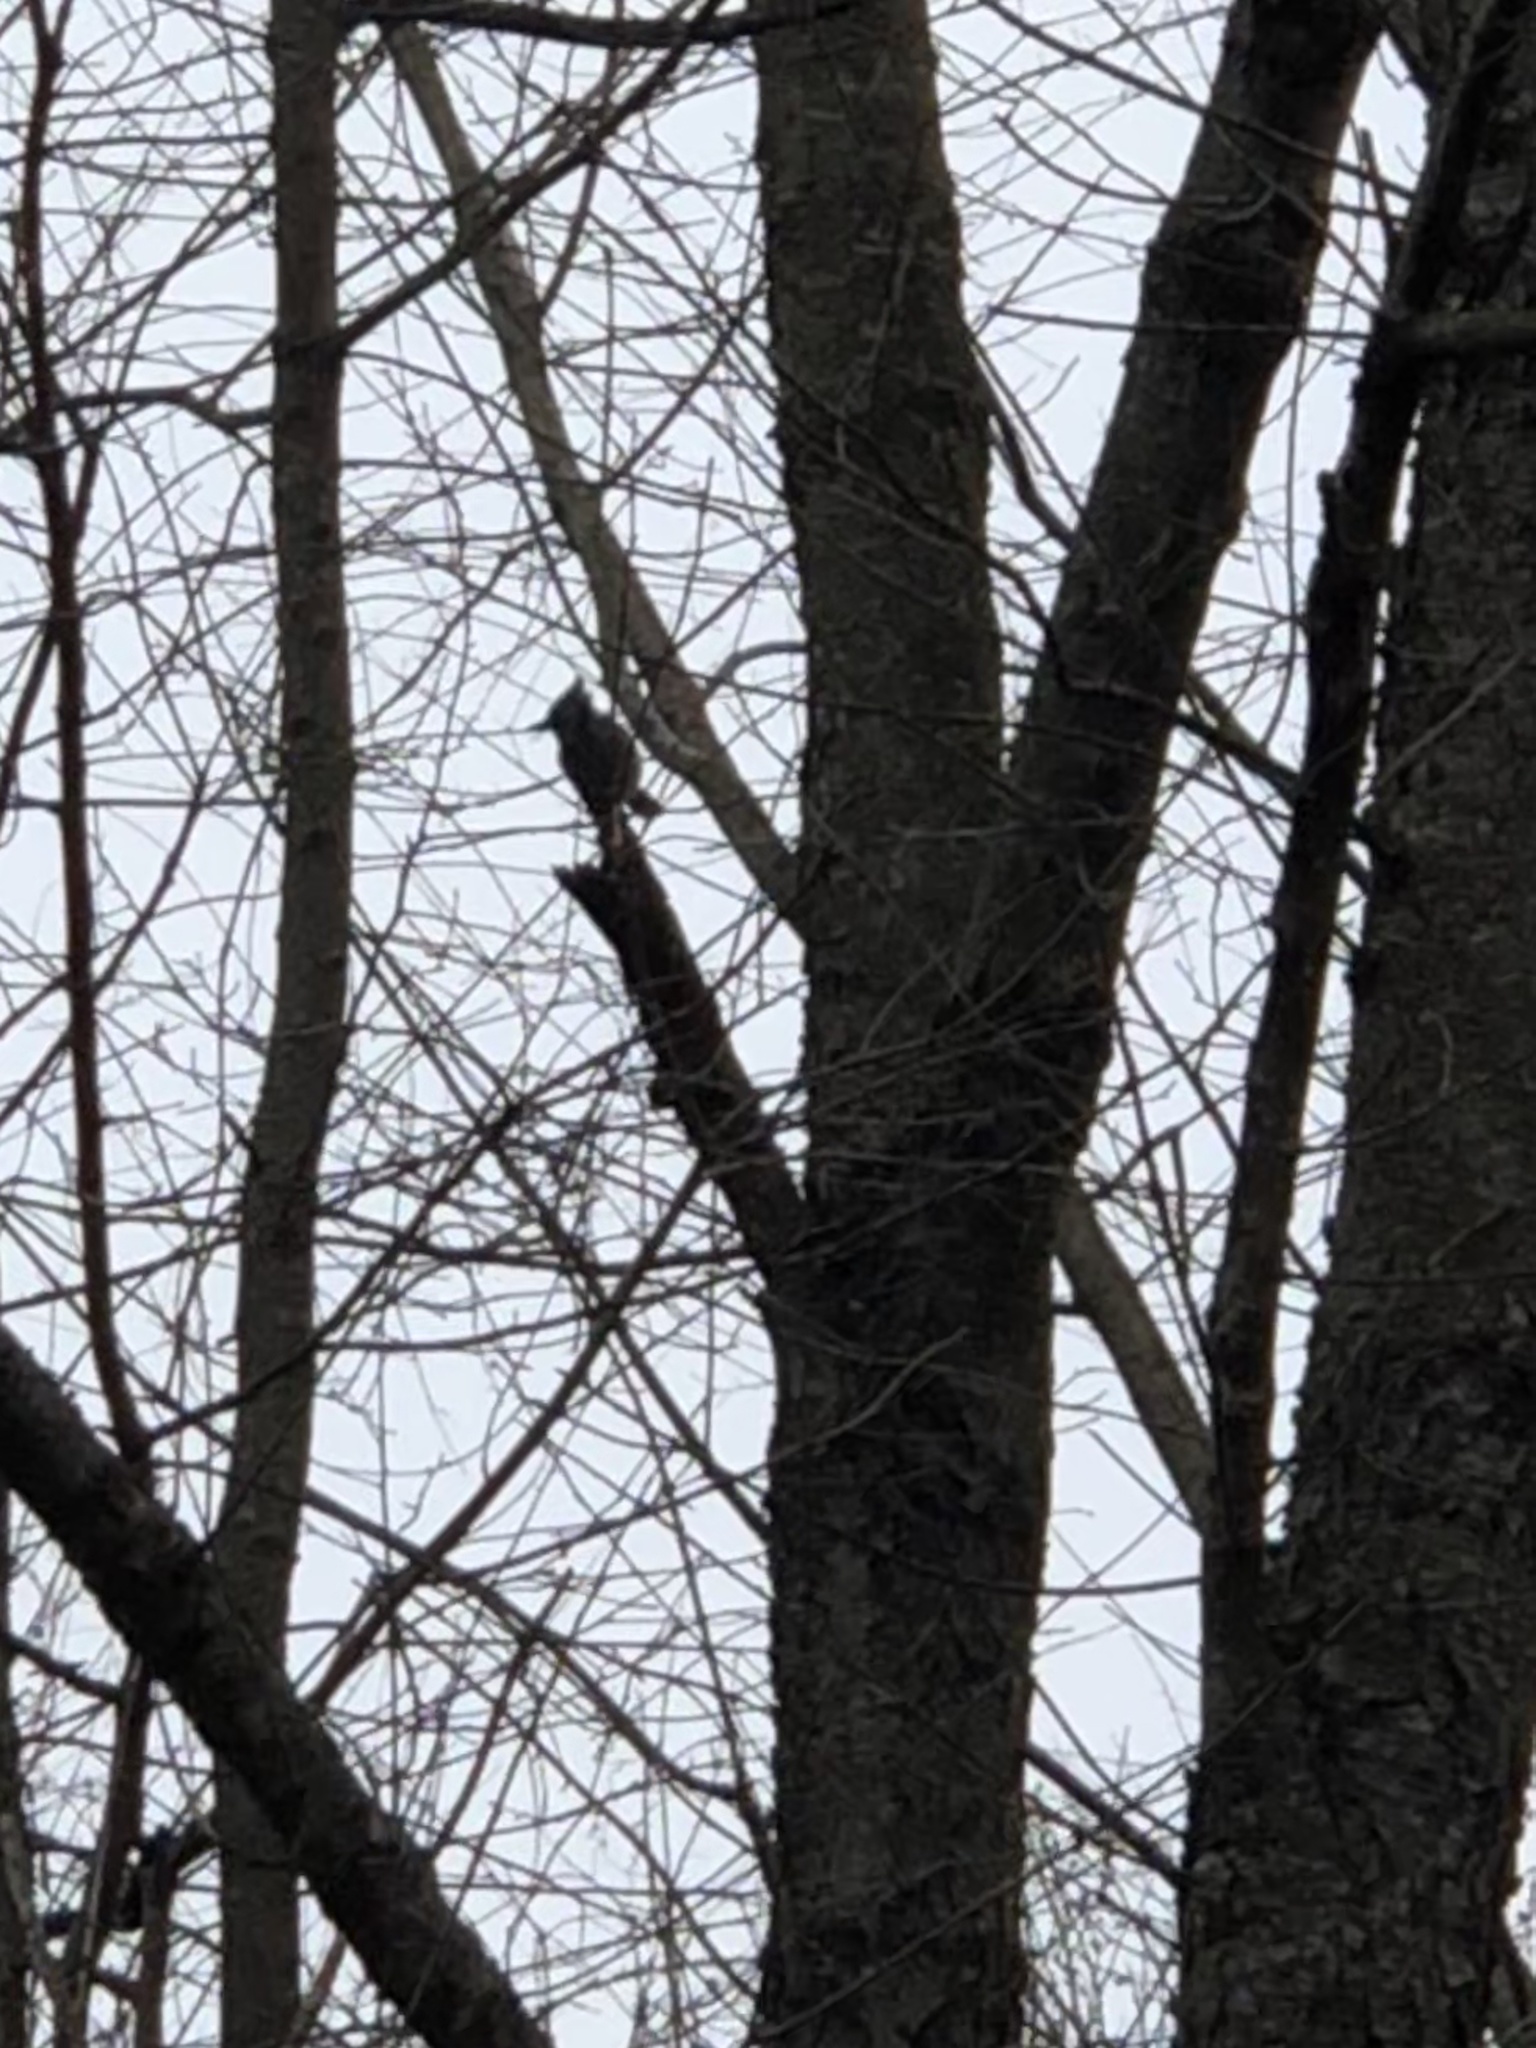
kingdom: Animalia
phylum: Chordata
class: Aves
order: Passeriformes
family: Corvidae
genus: Cyanocitta
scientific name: Cyanocitta cristata
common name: Blue jay
